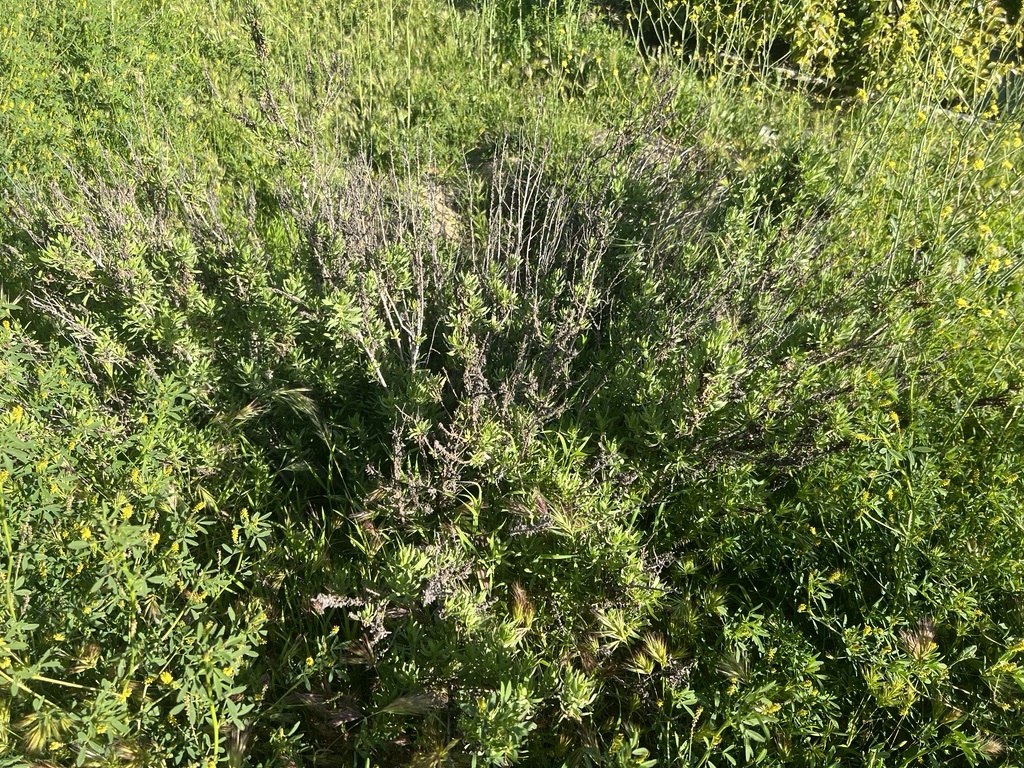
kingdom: Plantae
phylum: Tracheophyta
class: Magnoliopsida
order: Asterales
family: Asteraceae
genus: Isocoma
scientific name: Isocoma menziesii
